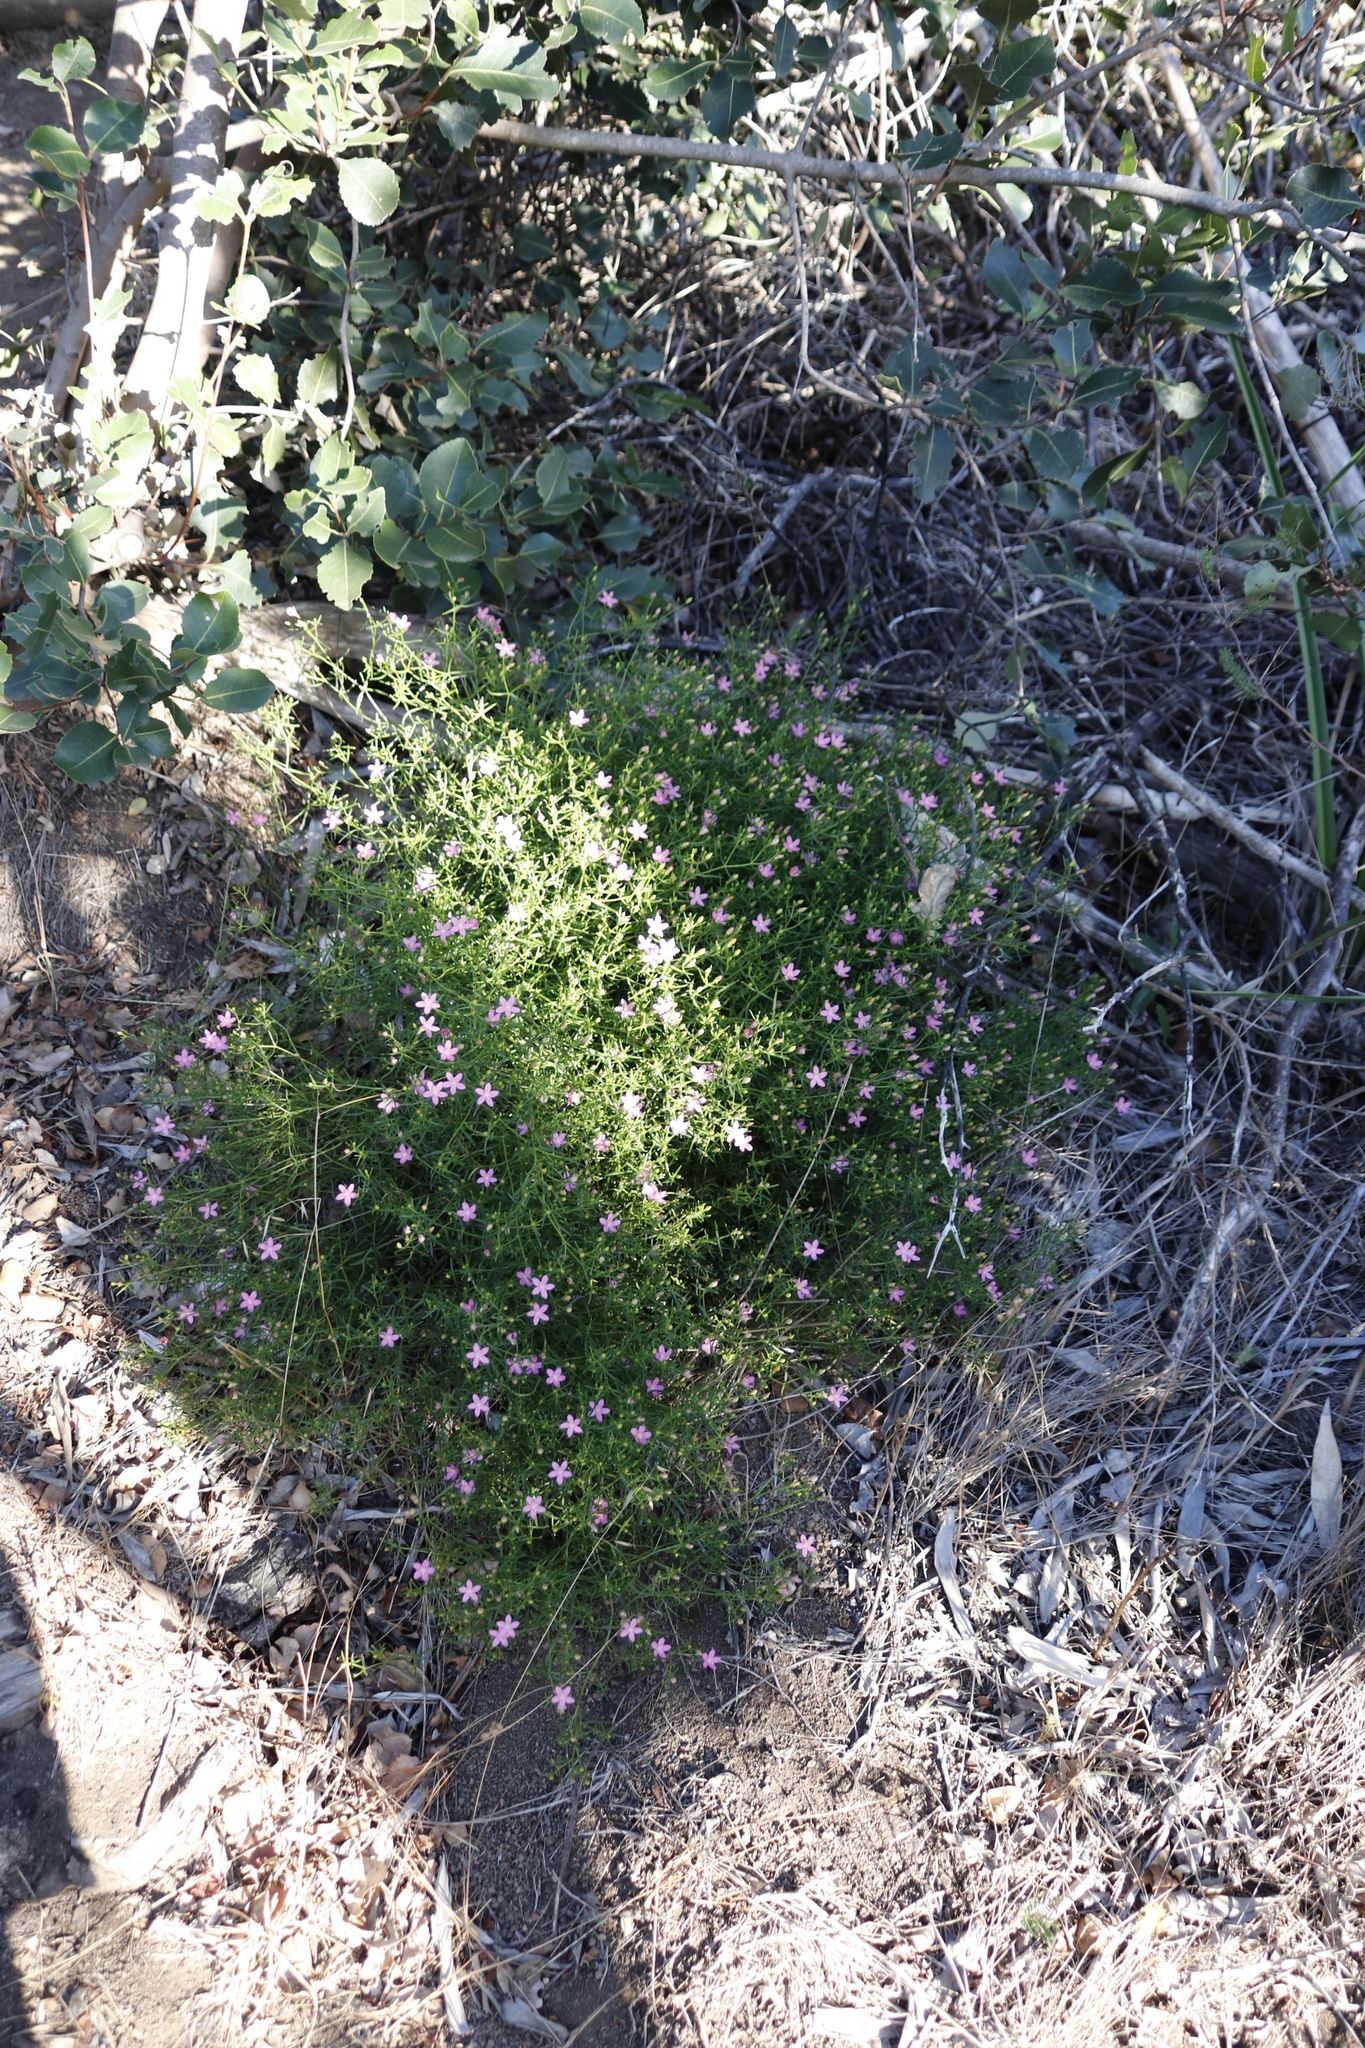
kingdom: Plantae
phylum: Tracheophyta
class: Magnoliopsida
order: Gentianales
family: Gentianaceae
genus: Chironia
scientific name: Chironia baccifera
